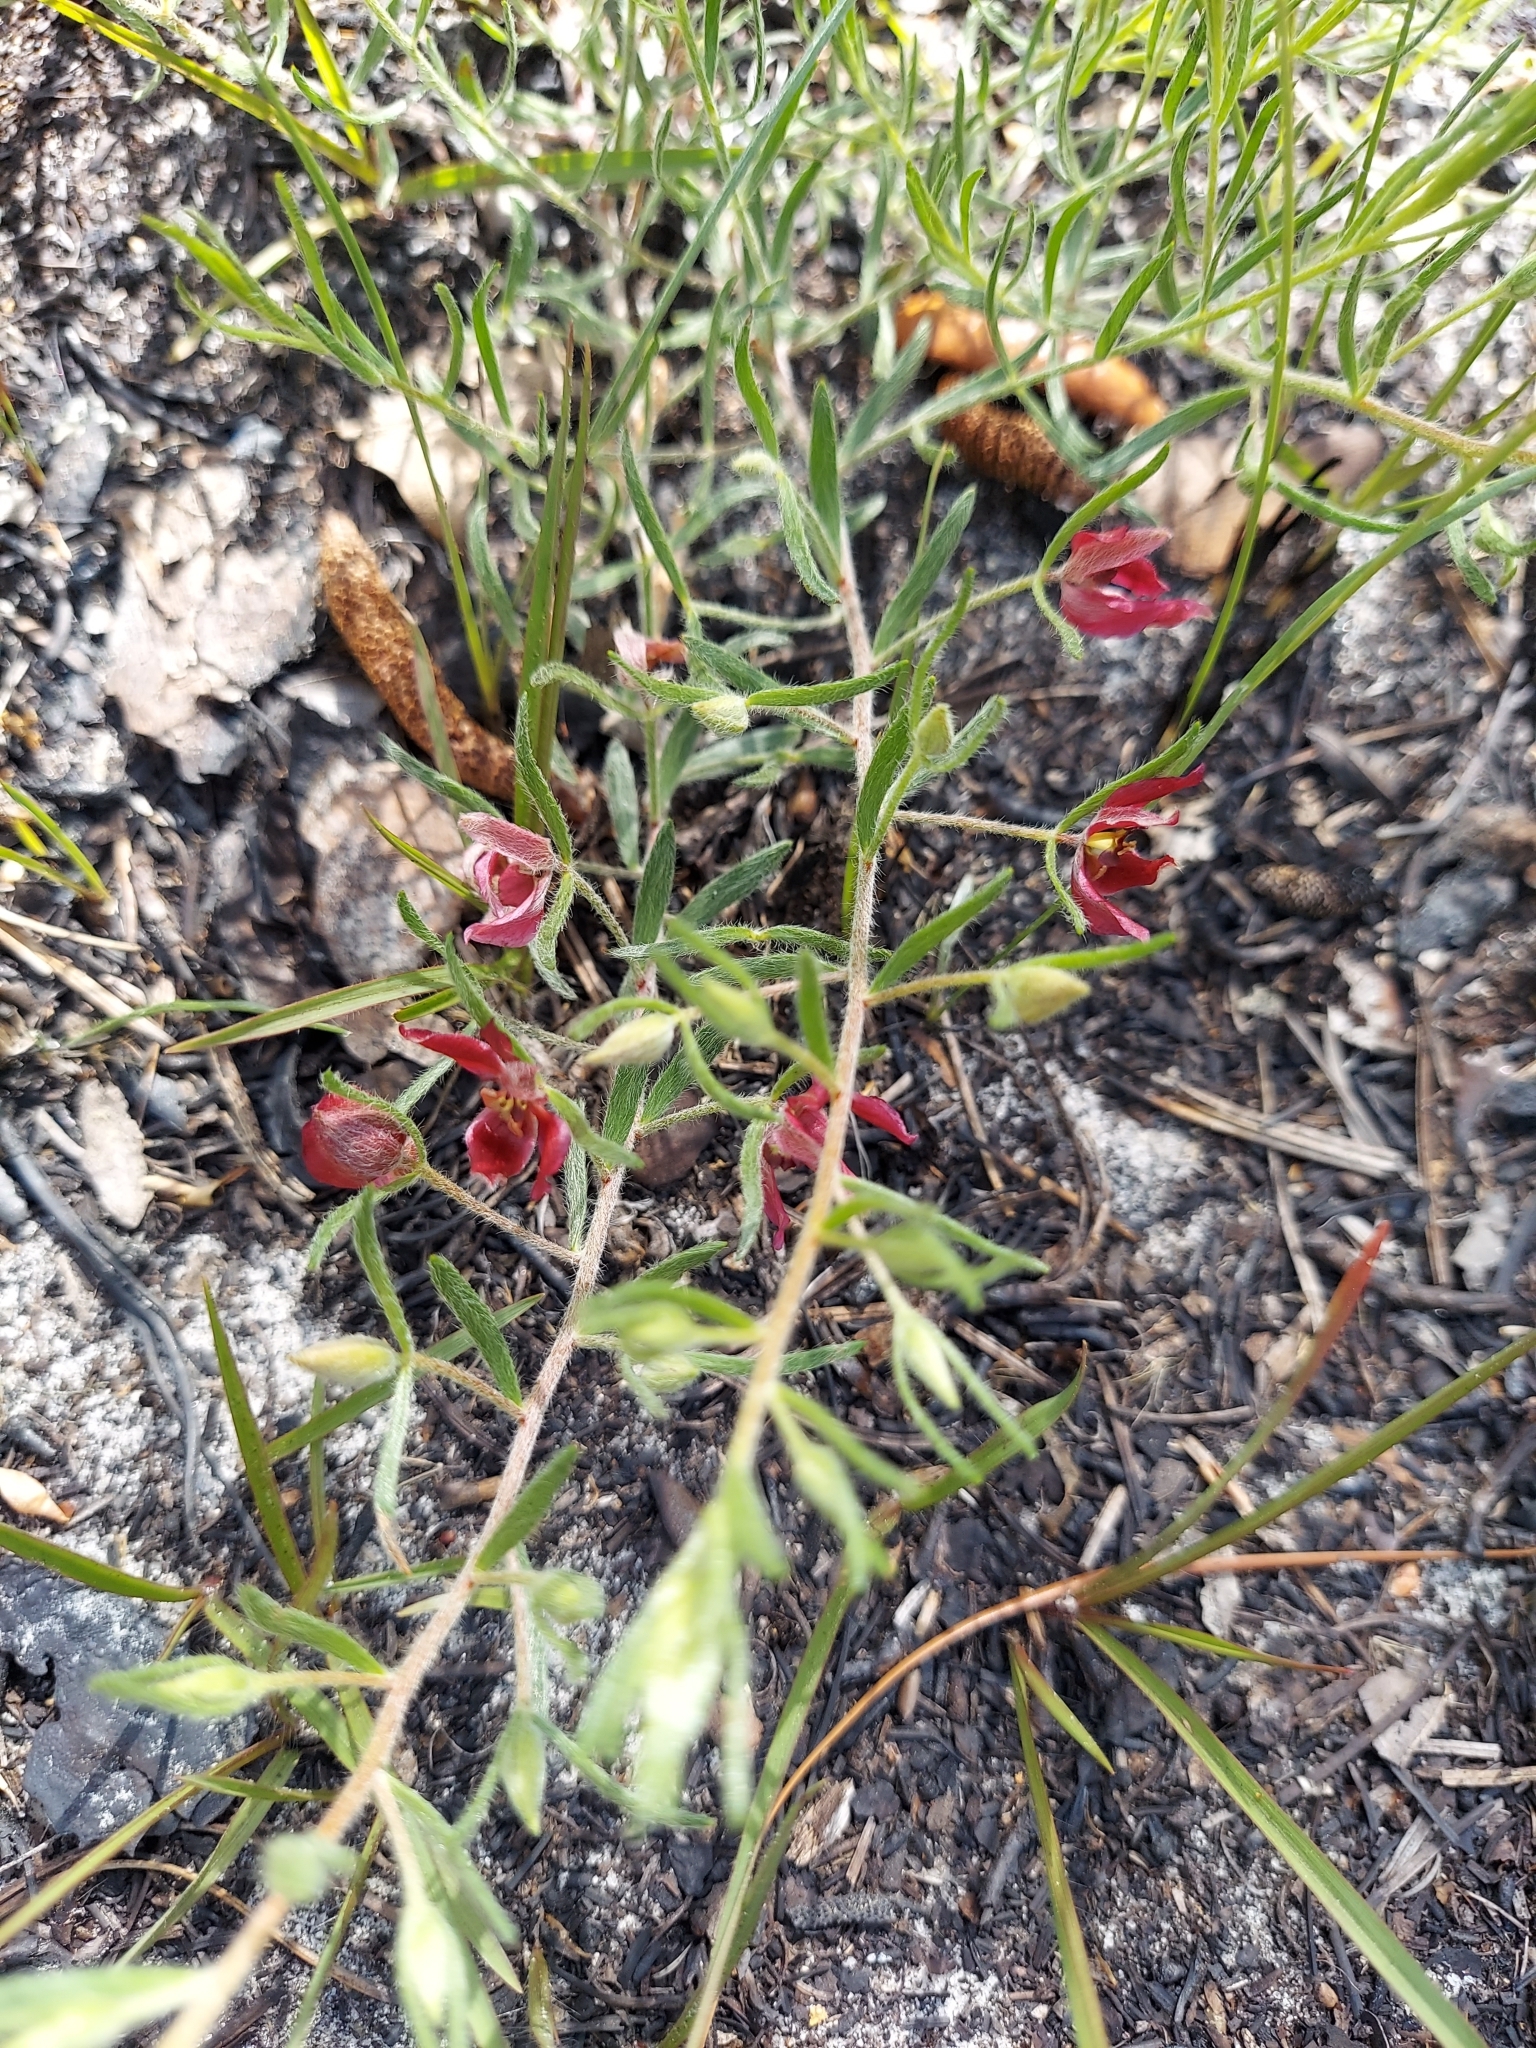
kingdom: Plantae
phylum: Tracheophyta
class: Magnoliopsida
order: Zygophyllales
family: Krameriaceae
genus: Krameria
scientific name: Krameria lanceolata
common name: Ratany
